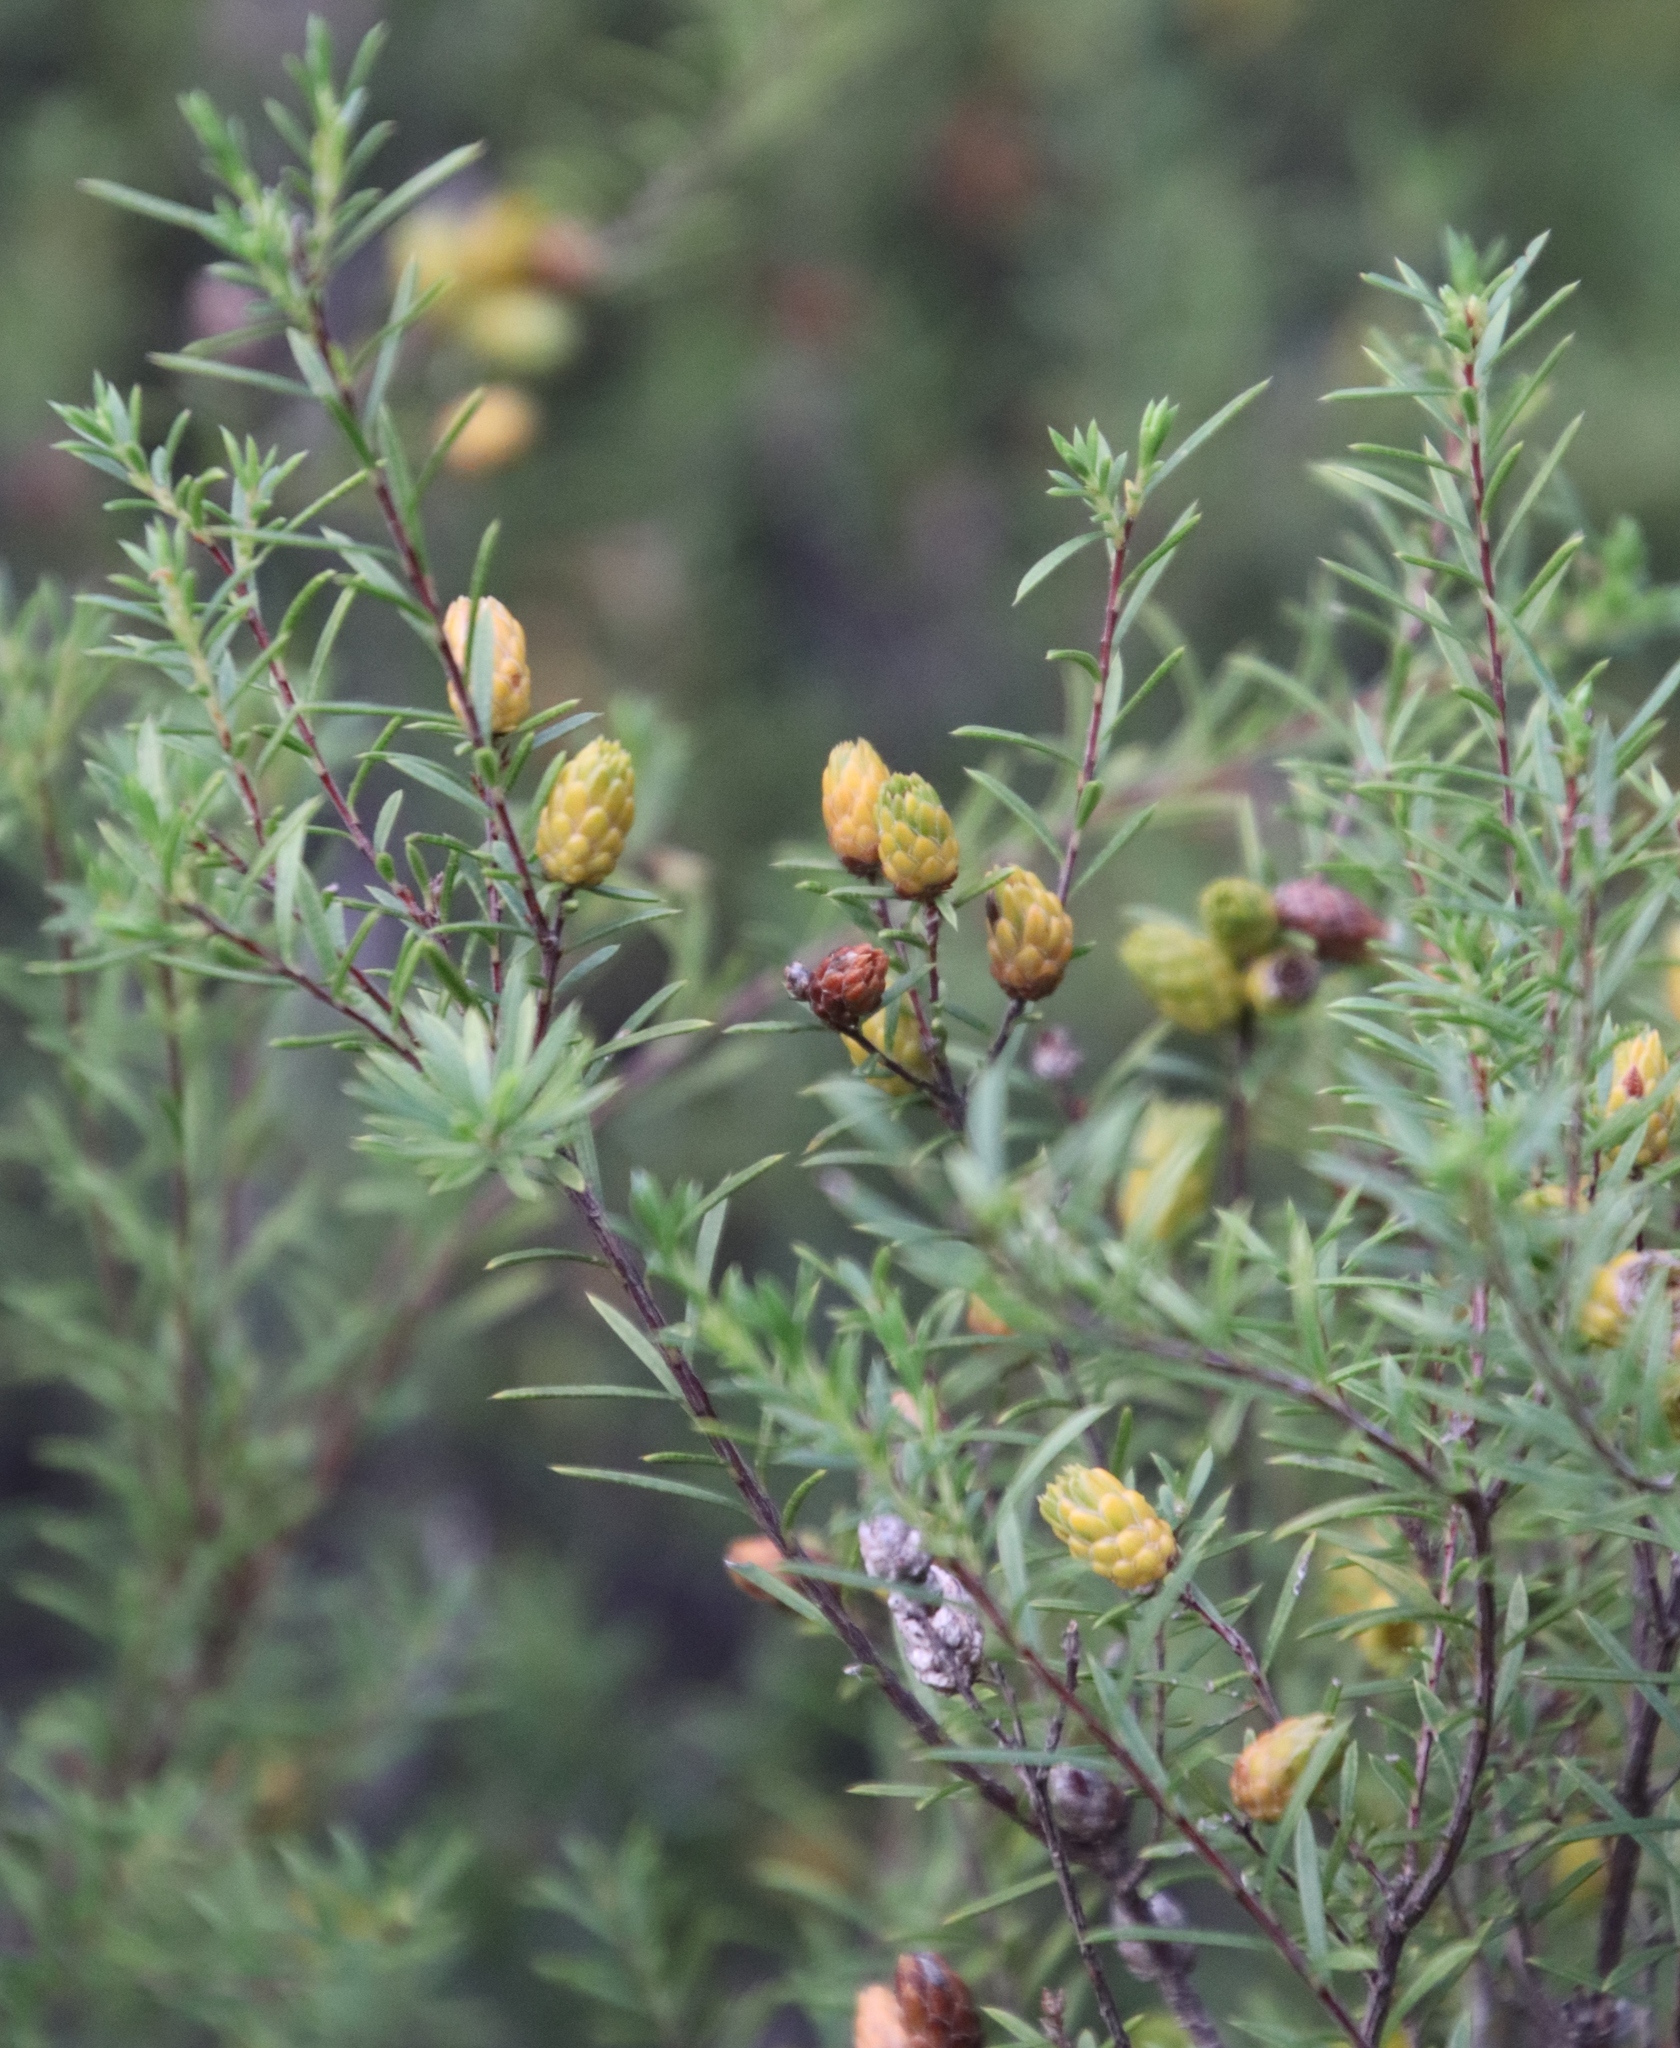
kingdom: Plantae
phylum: Tracheophyta
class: Magnoliopsida
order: Sapindales
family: Rutaceae
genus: Coleonema
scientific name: Coleonema album
